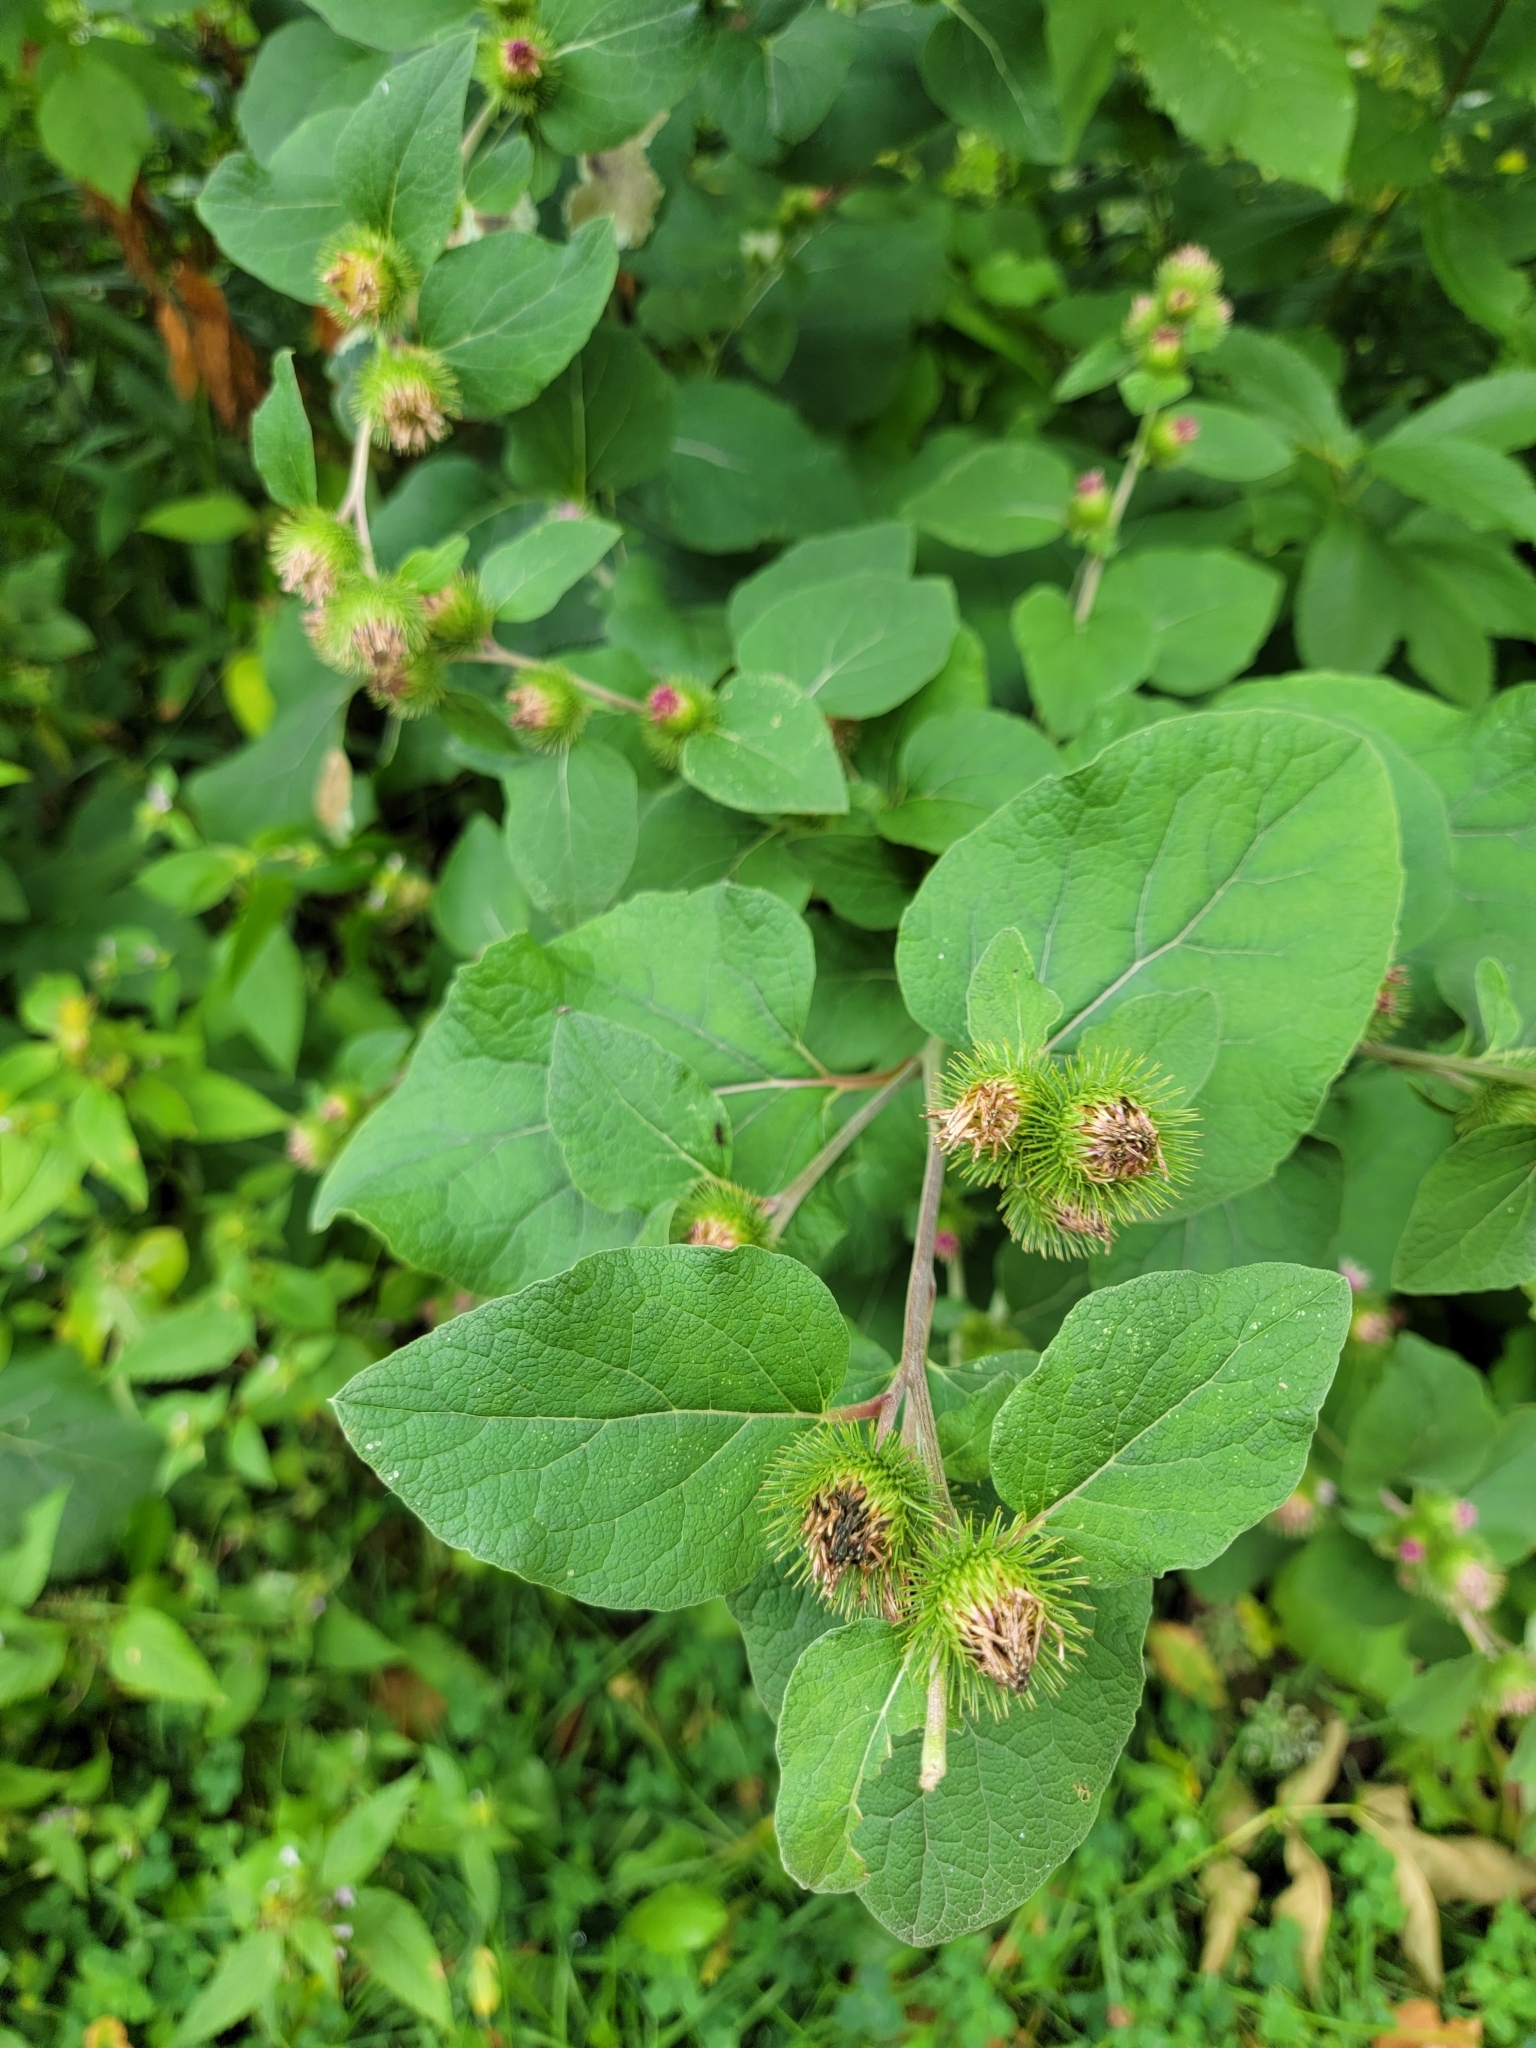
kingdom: Plantae
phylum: Tracheophyta
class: Magnoliopsida
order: Asterales
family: Asteraceae
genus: Arctium
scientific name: Arctium minus
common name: Lesser burdock
